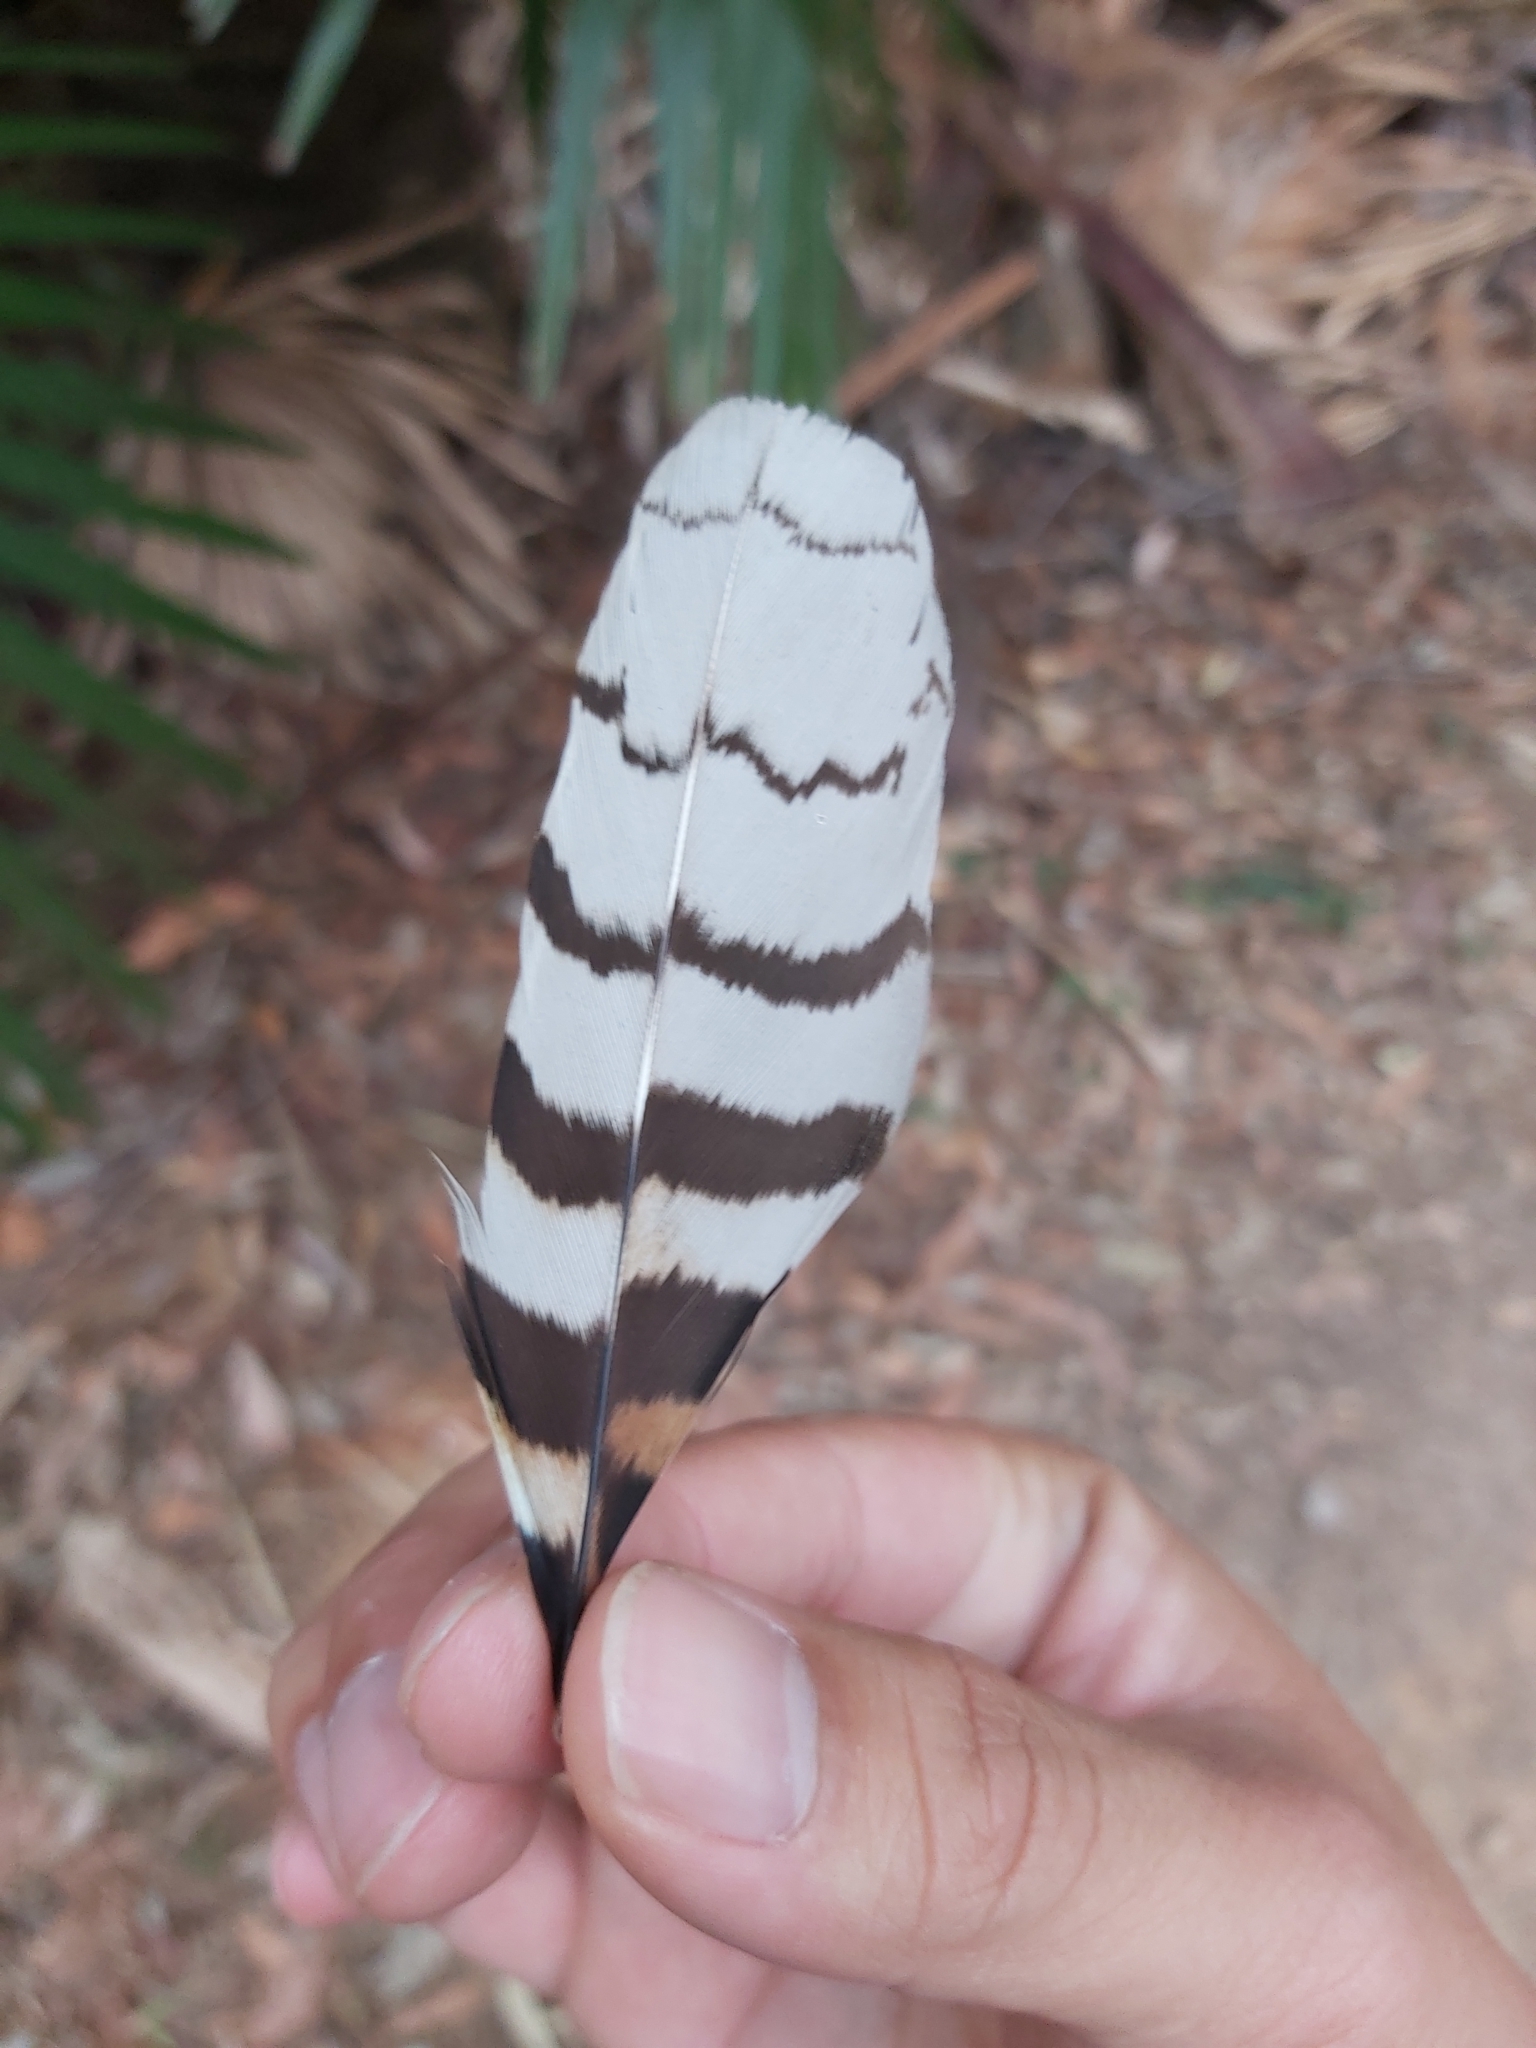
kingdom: Animalia
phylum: Chordata
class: Aves
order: Coraciiformes
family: Alcedinidae
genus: Dacelo
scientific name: Dacelo novaeguineae
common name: Laughing kookaburra
